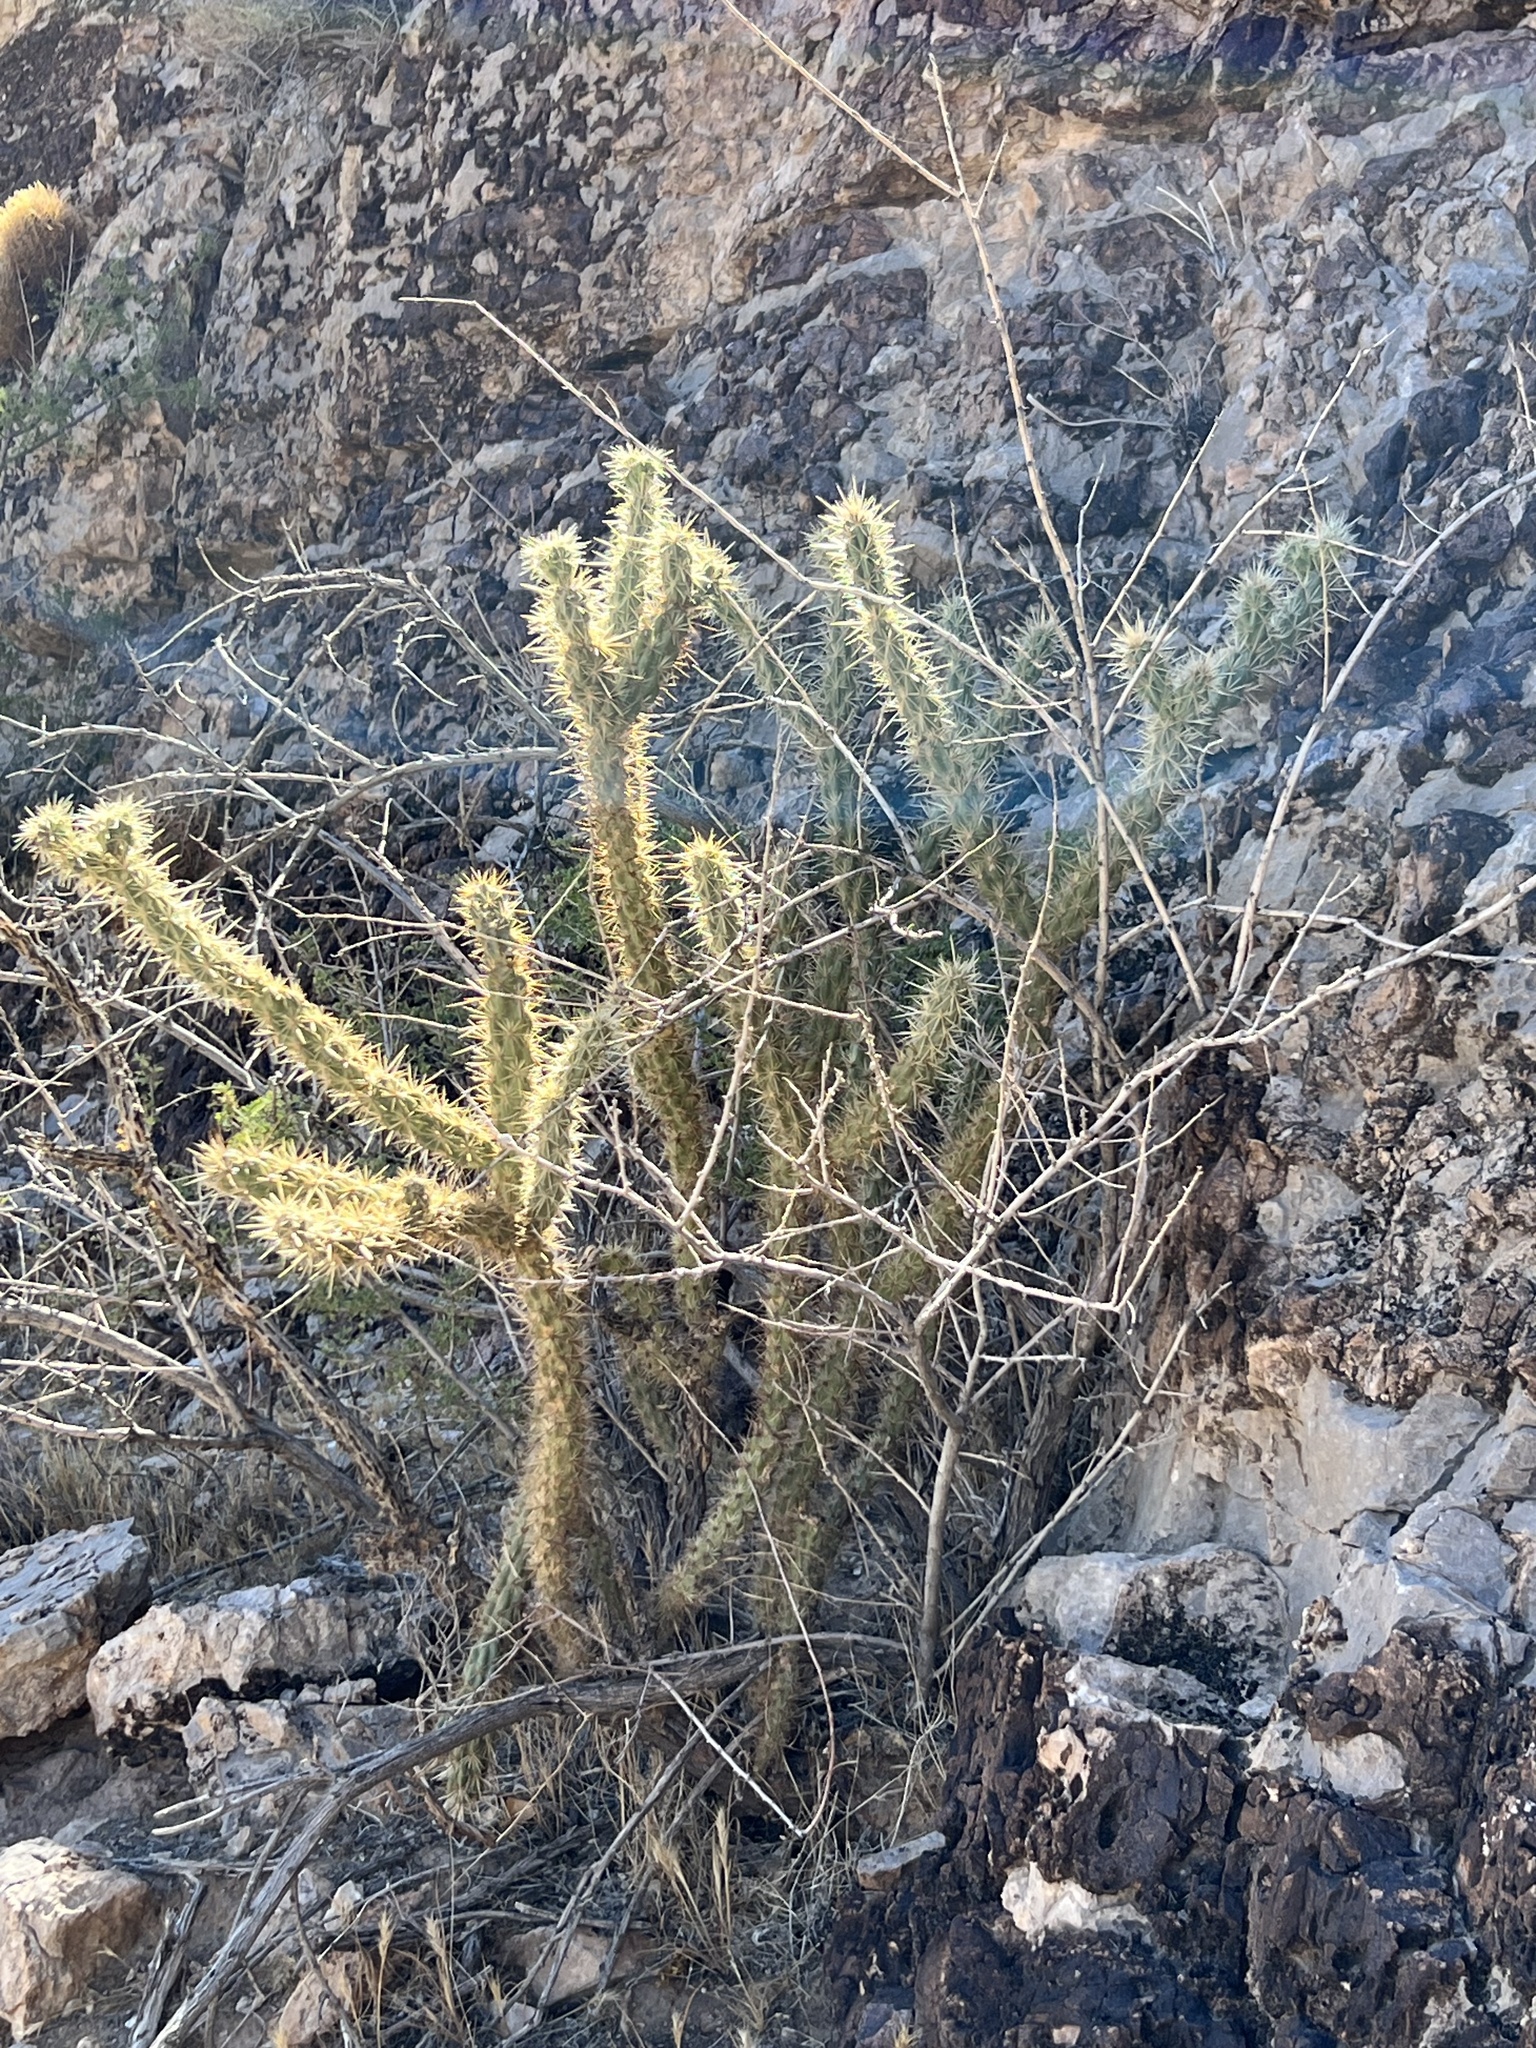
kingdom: Plantae
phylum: Tracheophyta
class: Magnoliopsida
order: Caryophyllales
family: Cactaceae
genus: Cylindropuntia
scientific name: Cylindropuntia acanthocarpa
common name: Buckhorn cholla
